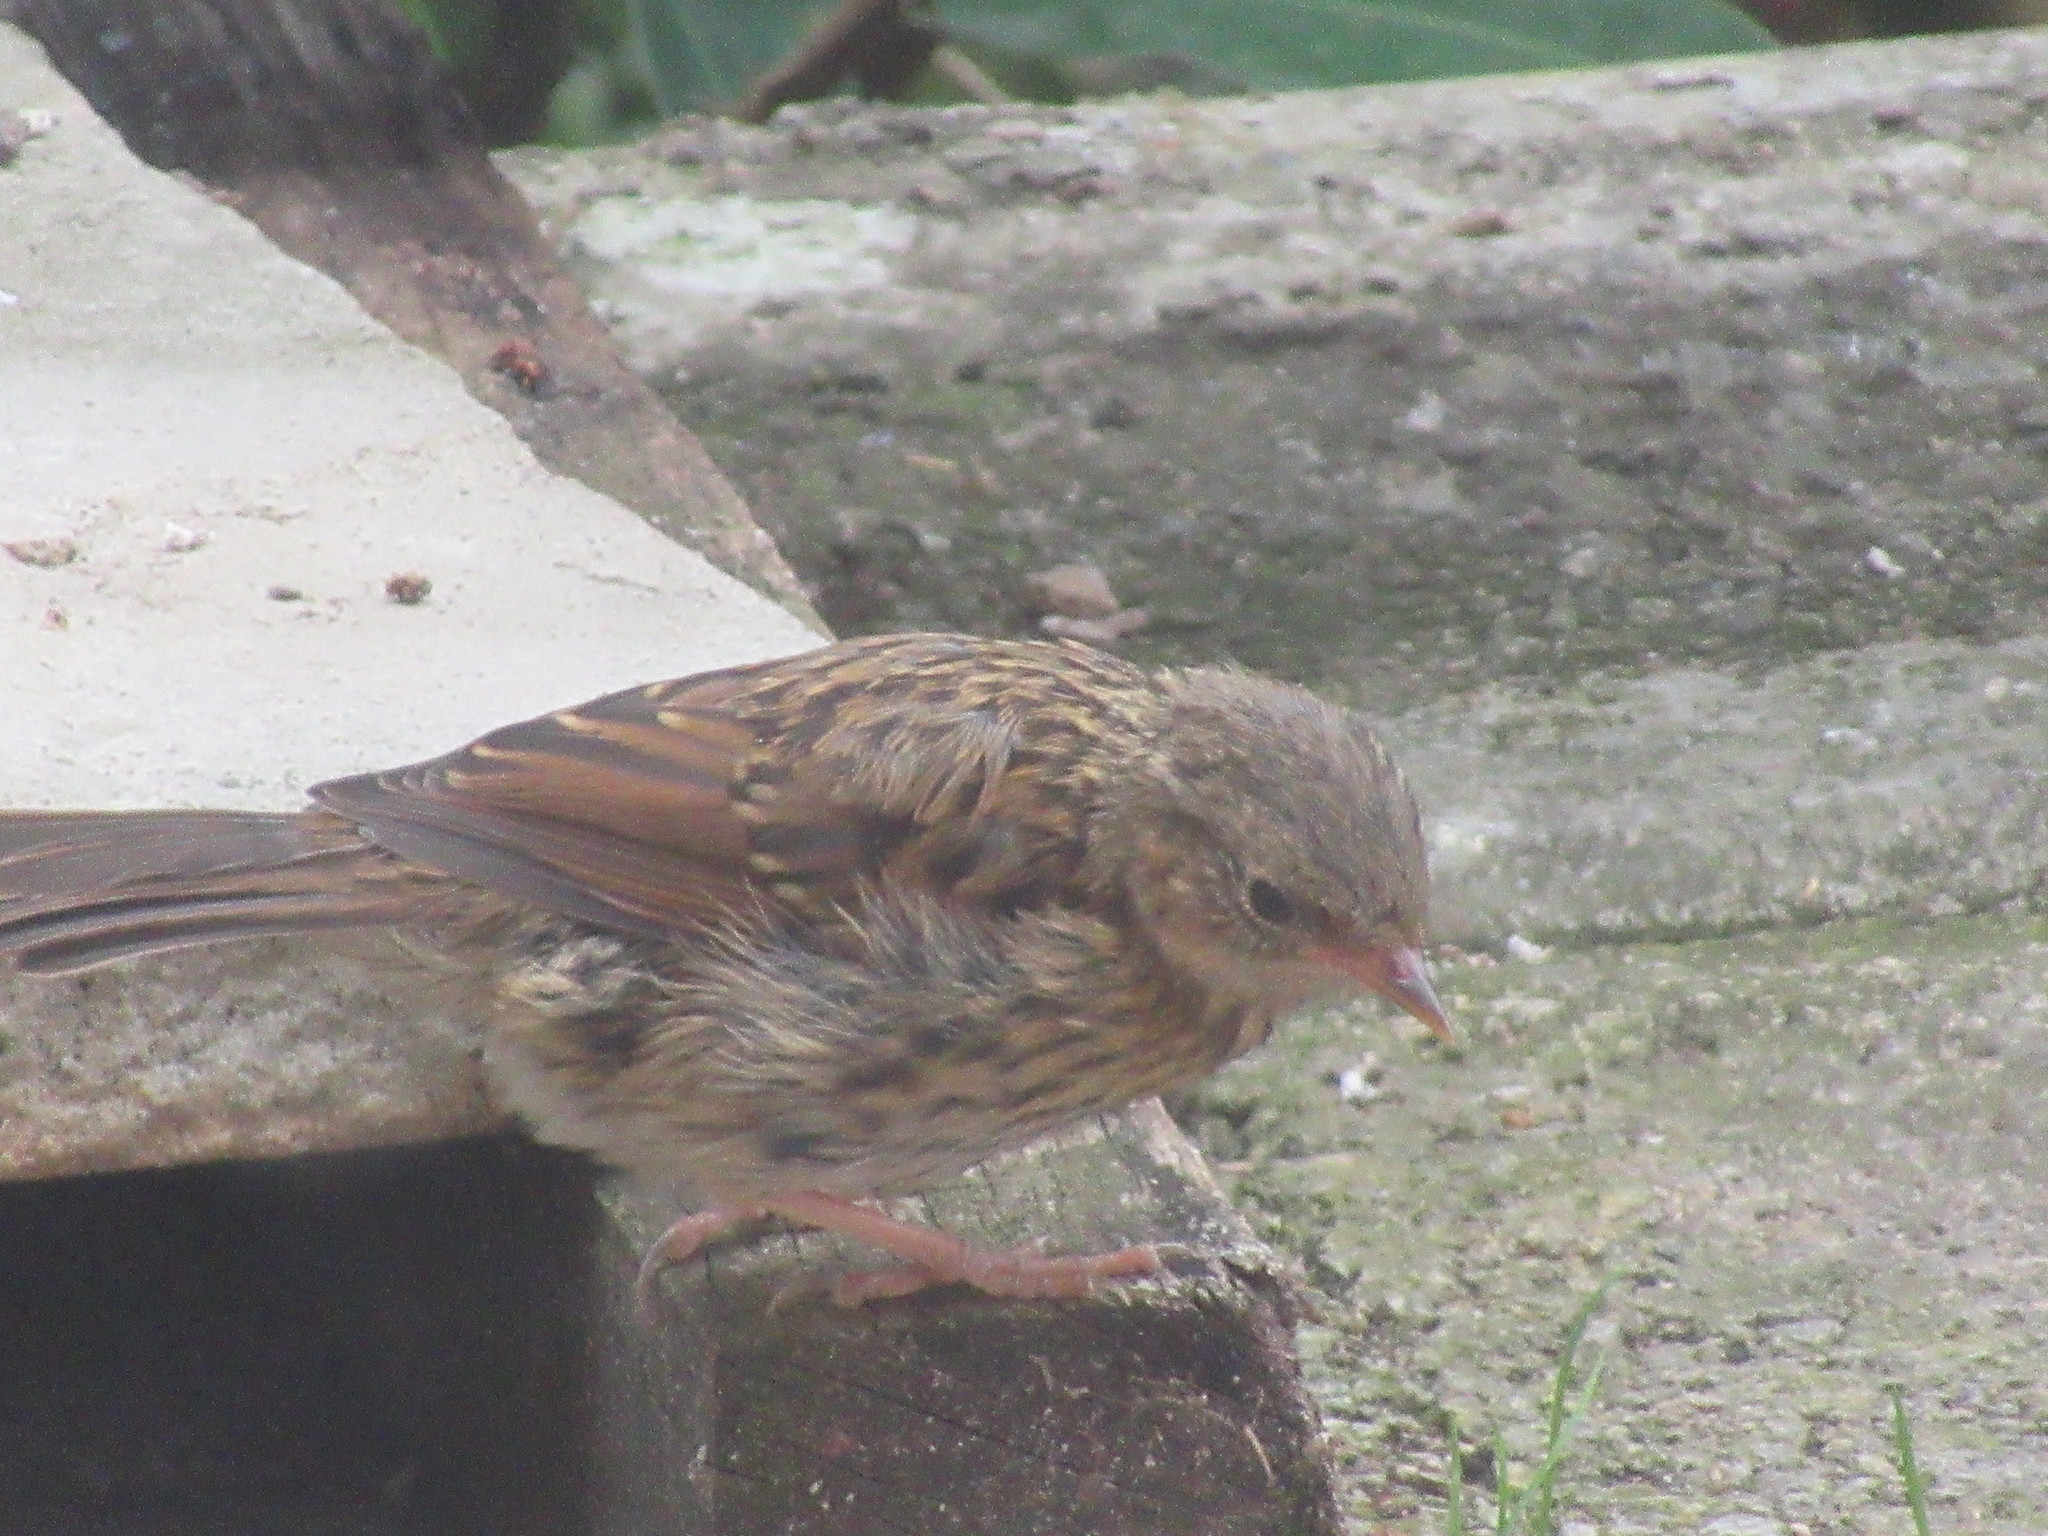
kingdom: Animalia
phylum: Chordata
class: Aves
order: Passeriformes
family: Prunellidae
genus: Prunella
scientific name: Prunella modularis
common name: Dunnock
